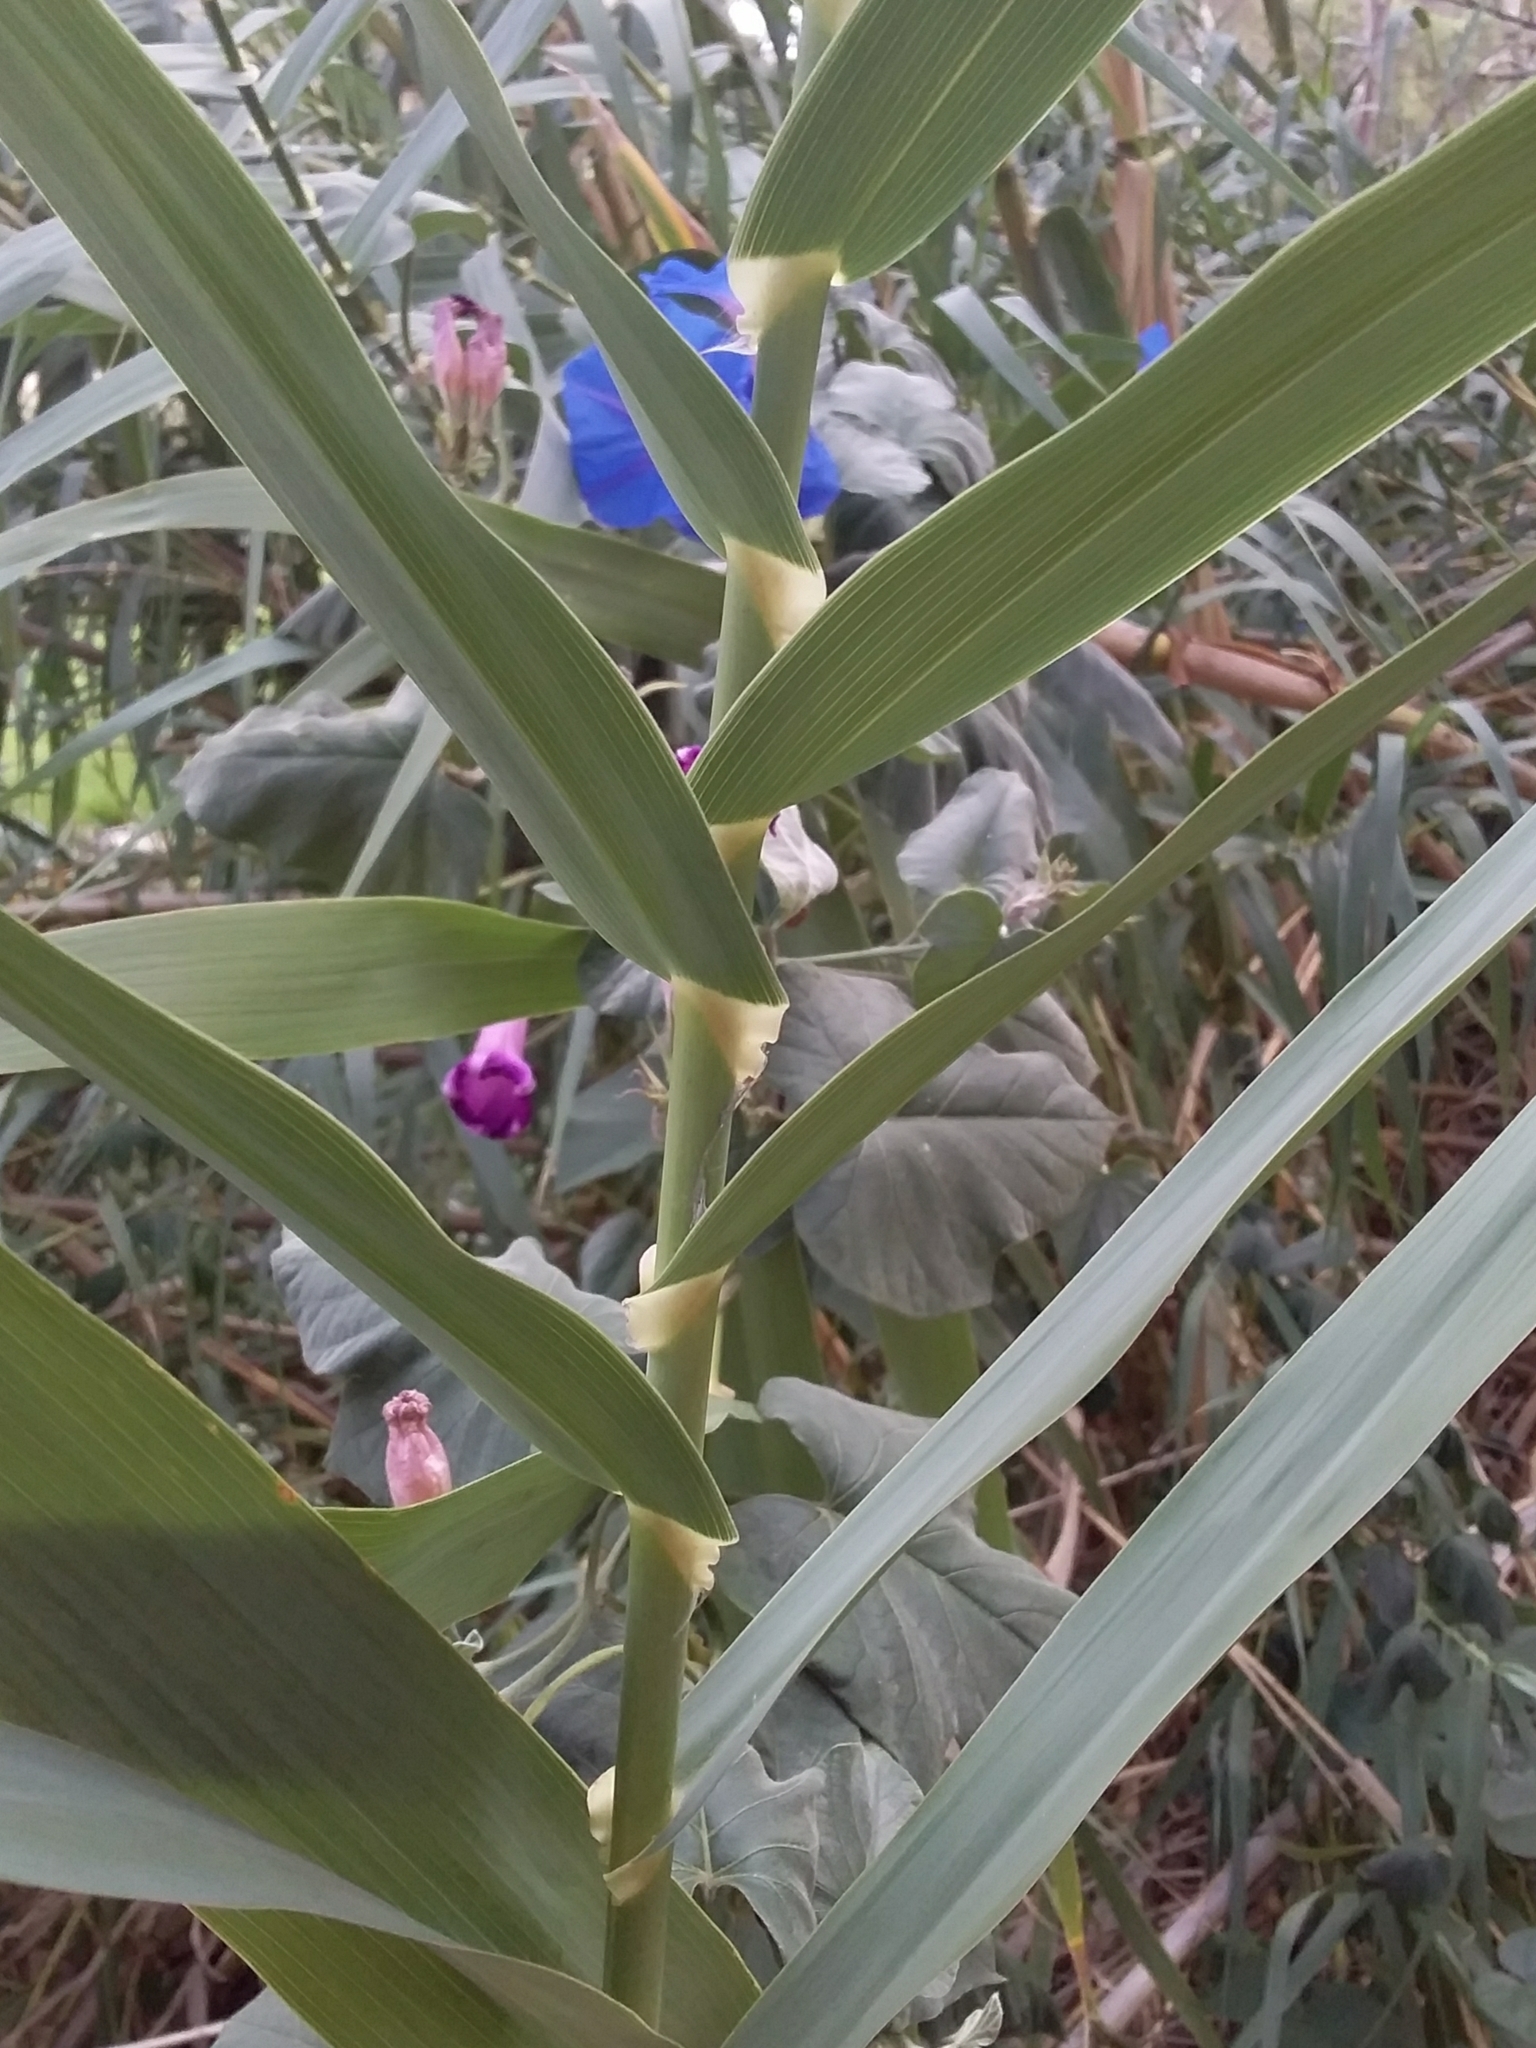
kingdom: Plantae
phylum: Tracheophyta
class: Liliopsida
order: Poales
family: Poaceae
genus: Arundo
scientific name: Arundo donax
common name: Giant reed
